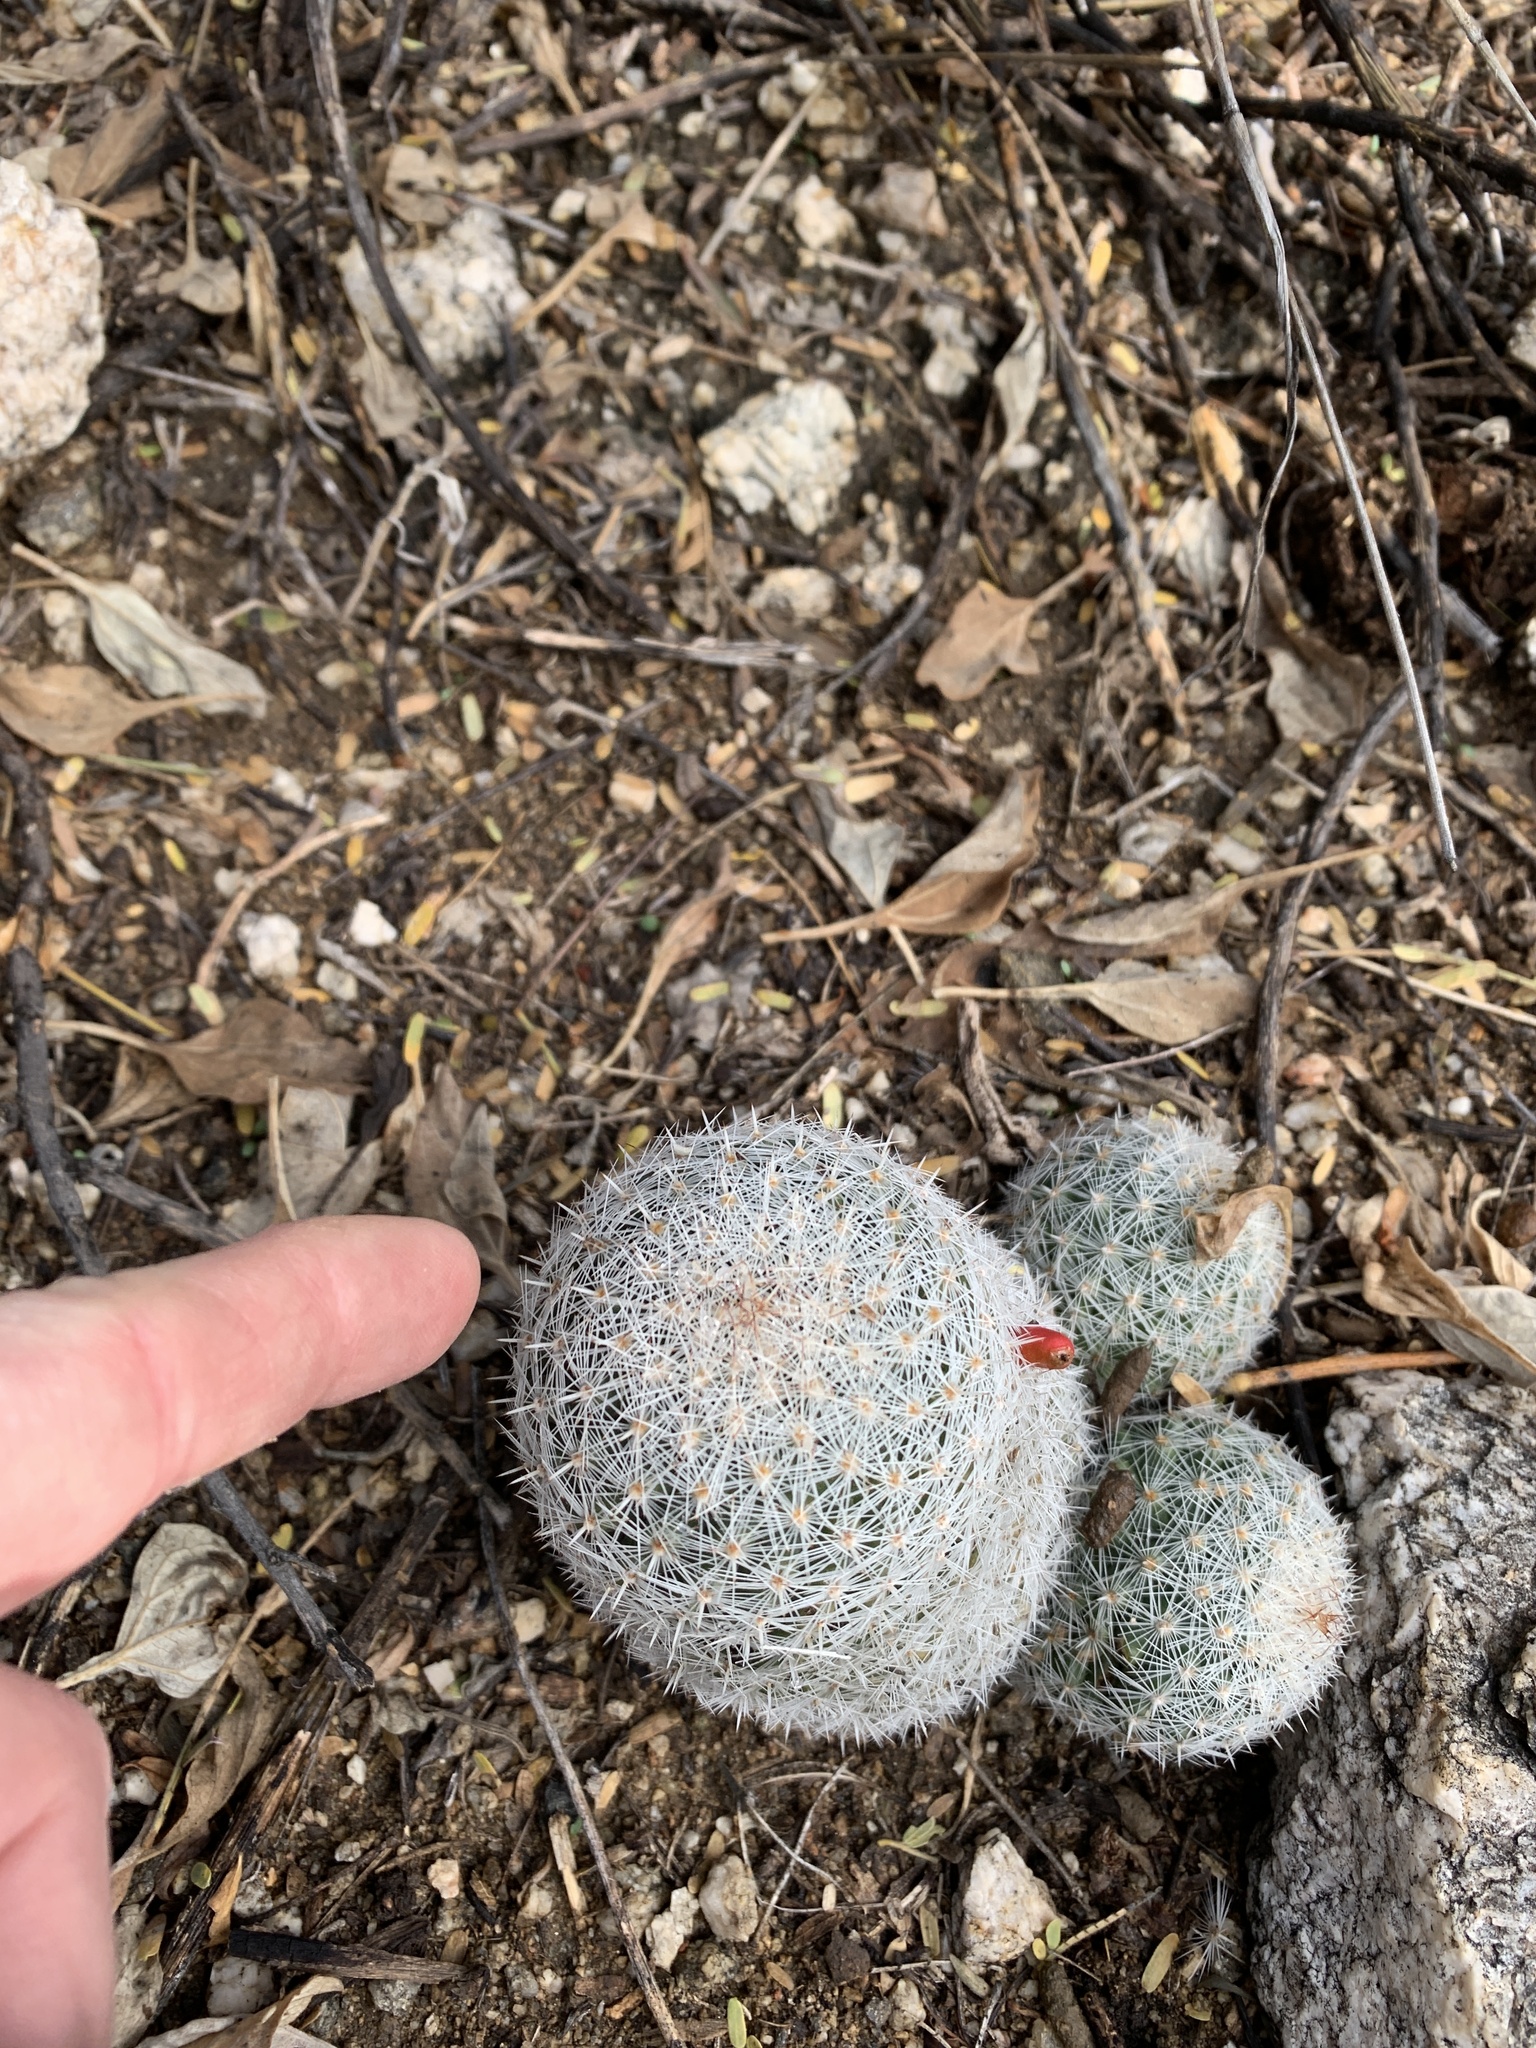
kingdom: Plantae
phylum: Tracheophyta
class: Magnoliopsida
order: Caryophyllales
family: Cactaceae
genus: Cochemiea
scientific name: Cochemiea grahamii
